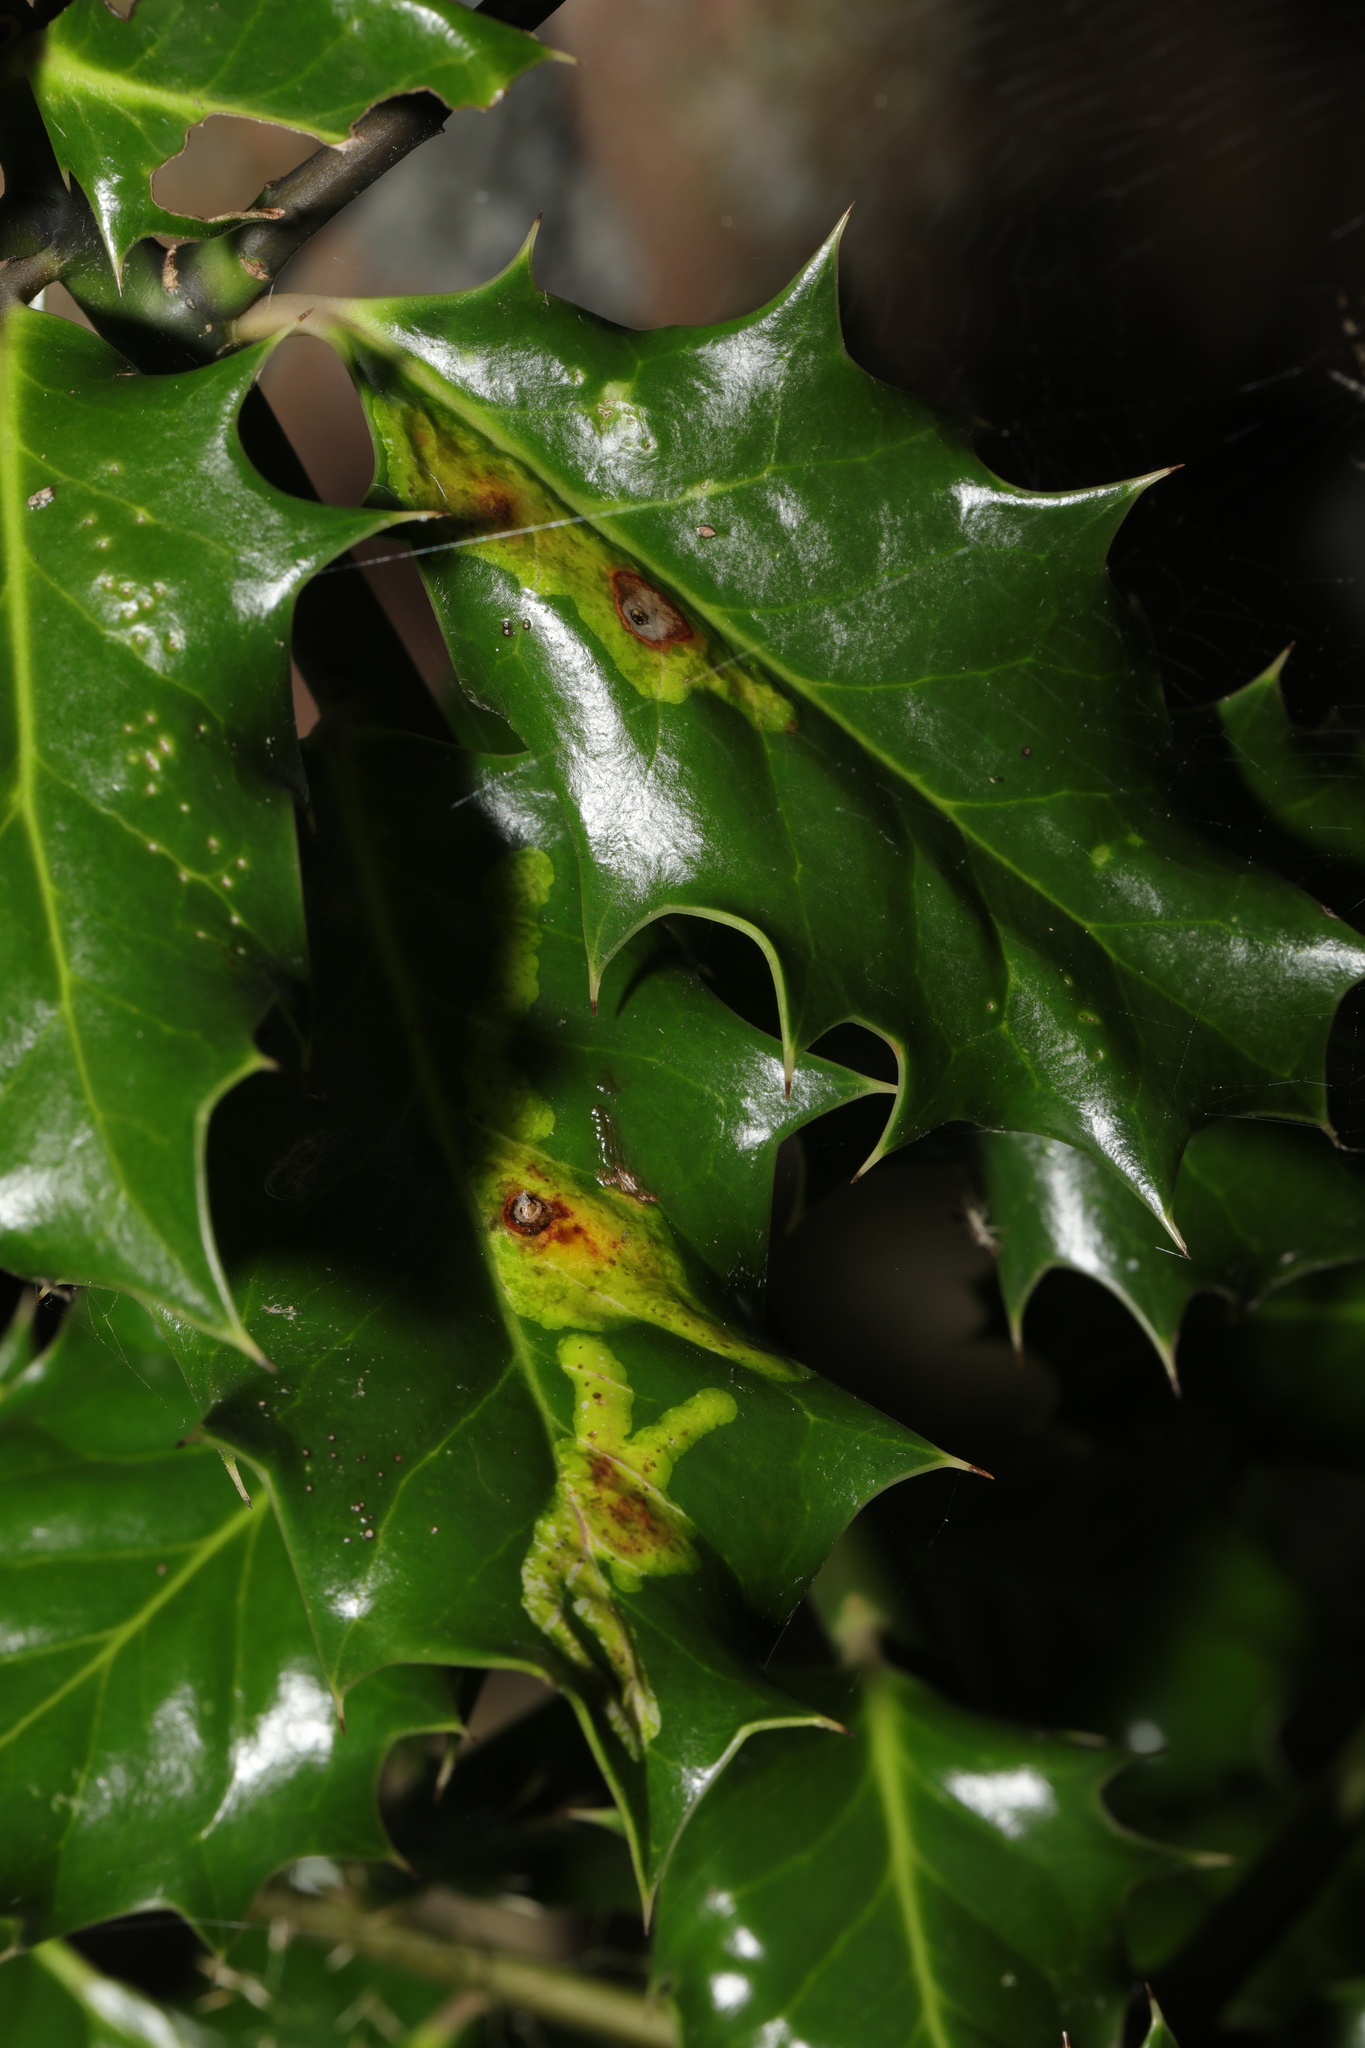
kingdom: Animalia
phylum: Arthropoda
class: Insecta
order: Diptera
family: Agromyzidae
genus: Phytomyza
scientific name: Phytomyza ilicis
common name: Holly leafminer
